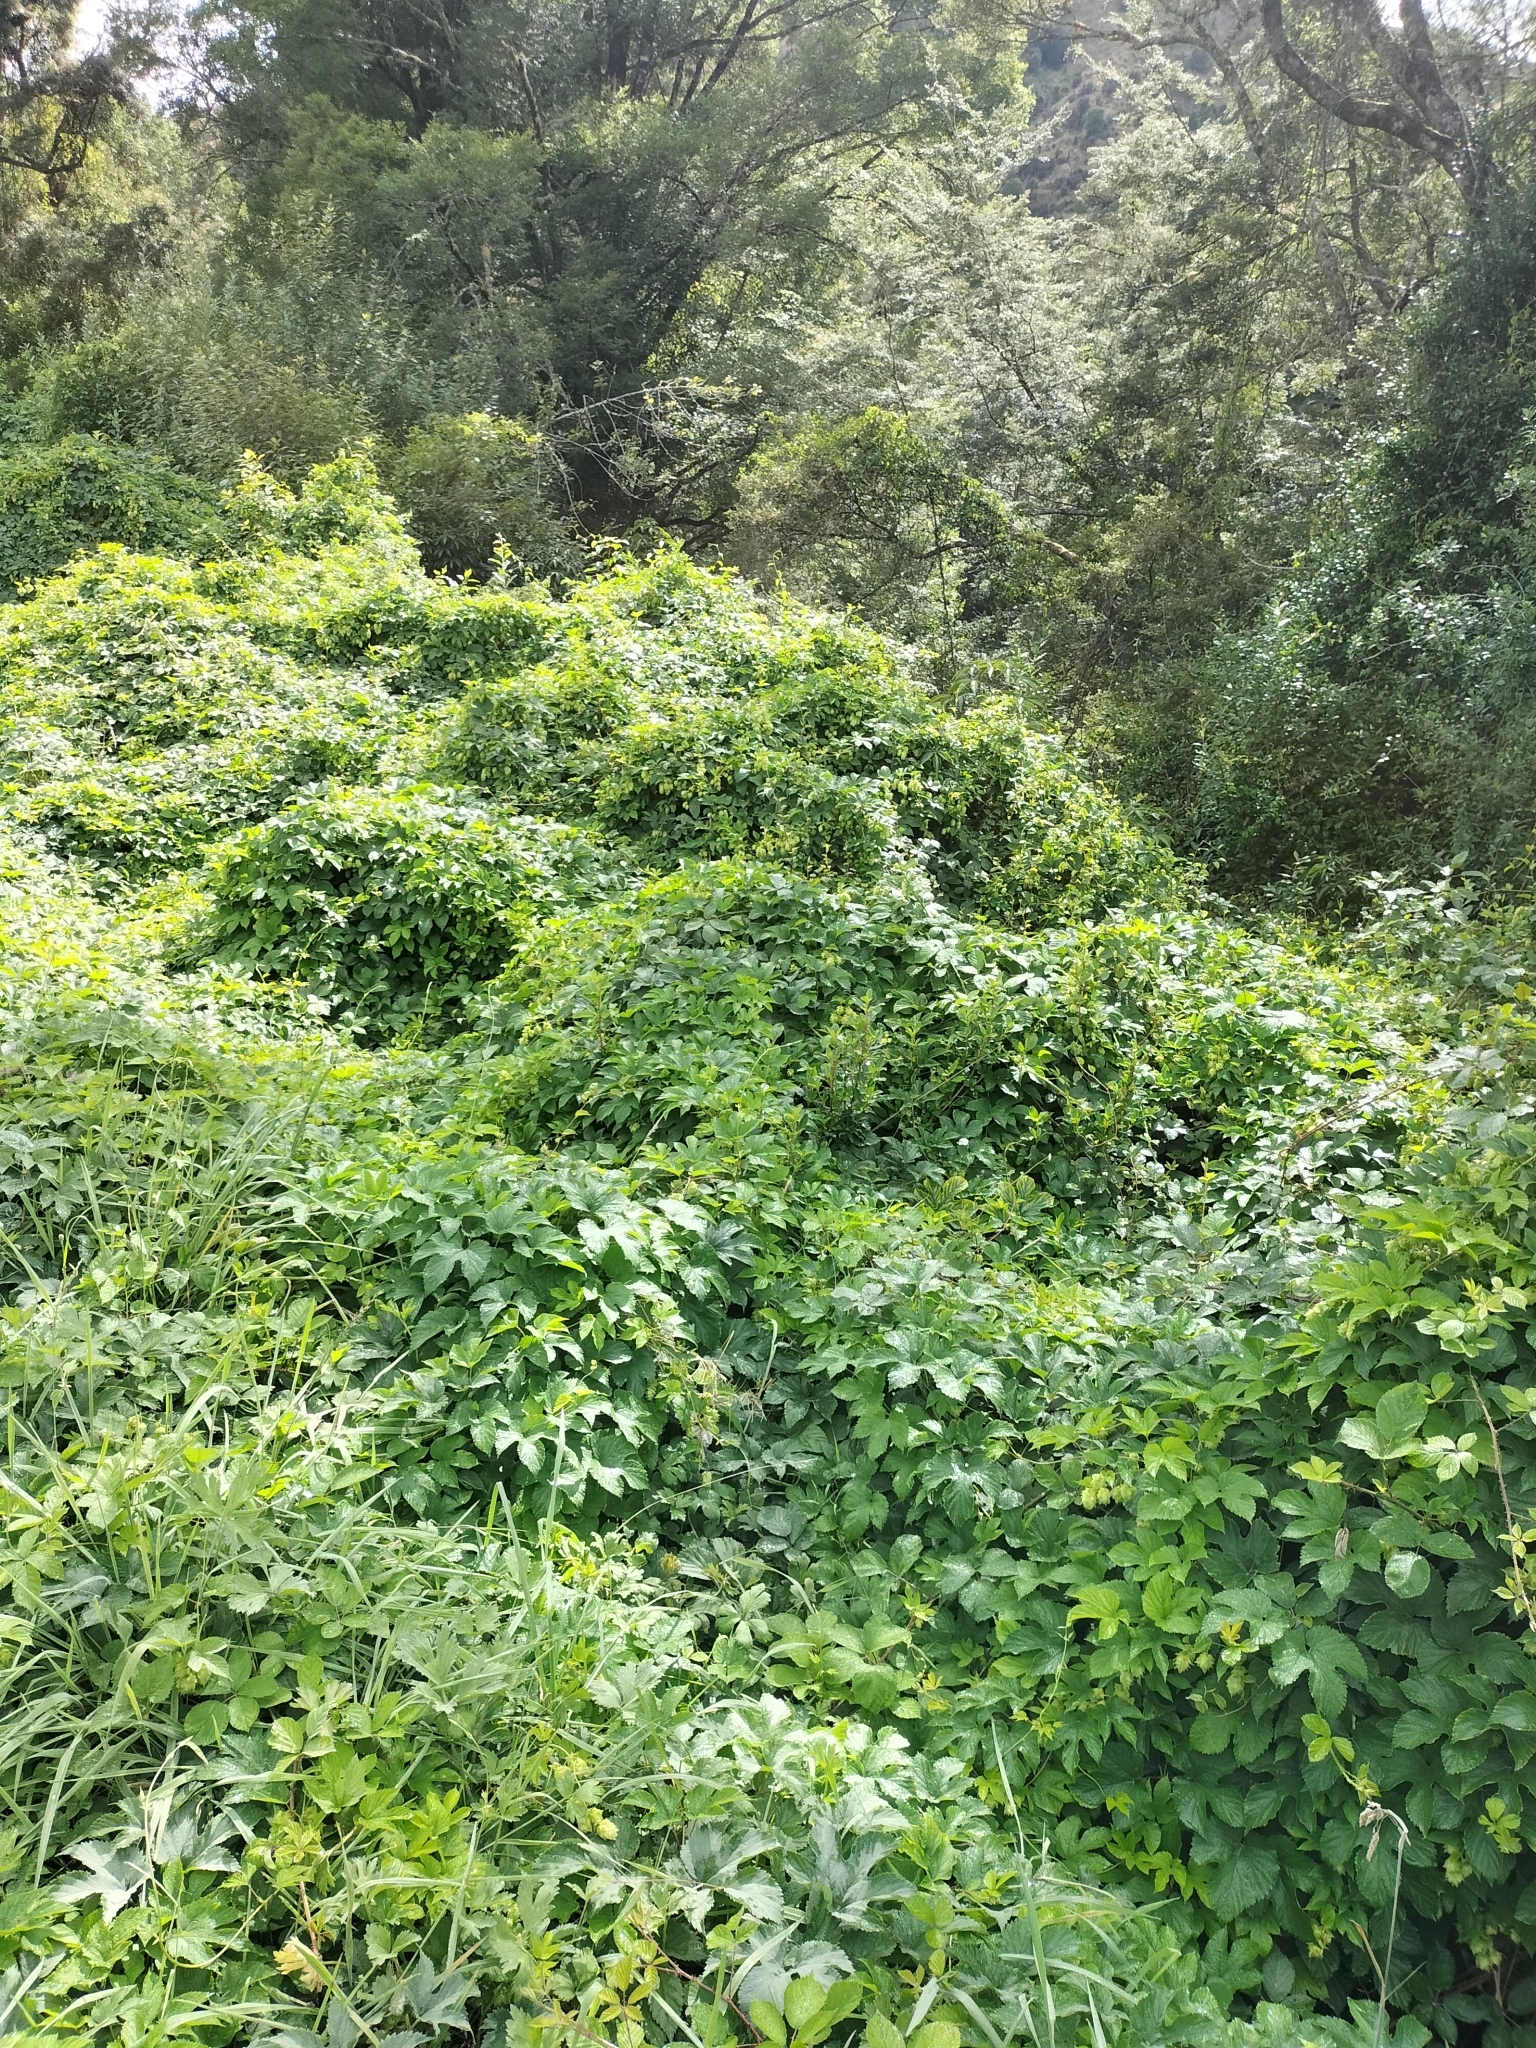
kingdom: Plantae
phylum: Tracheophyta
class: Magnoliopsida
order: Rosales
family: Cannabaceae
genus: Humulus
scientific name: Humulus lupulus
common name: Hop
